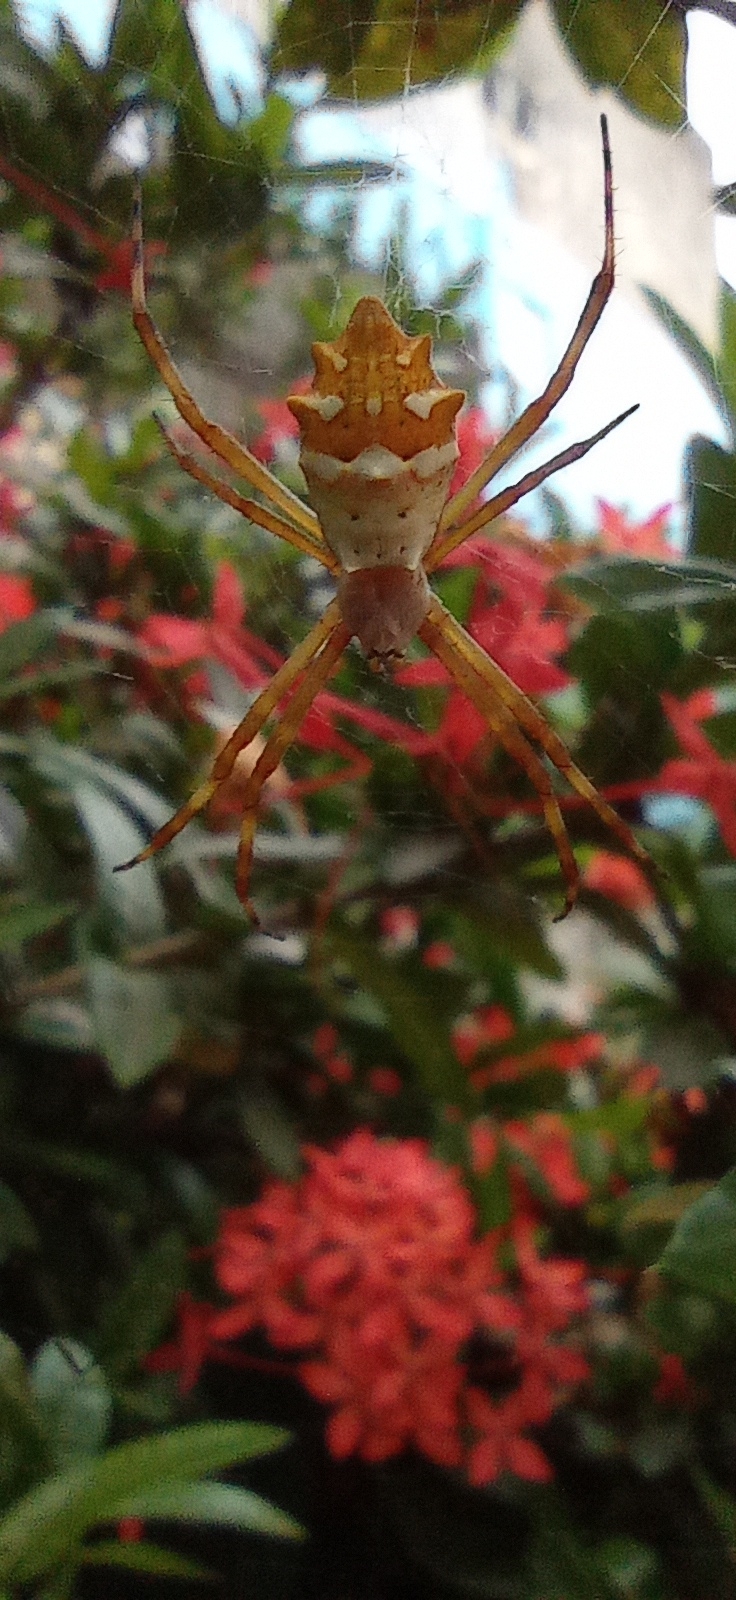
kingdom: Animalia
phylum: Arthropoda
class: Arachnida
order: Araneae
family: Araneidae
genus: Argiope
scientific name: Argiope argentata
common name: Orb weavers
